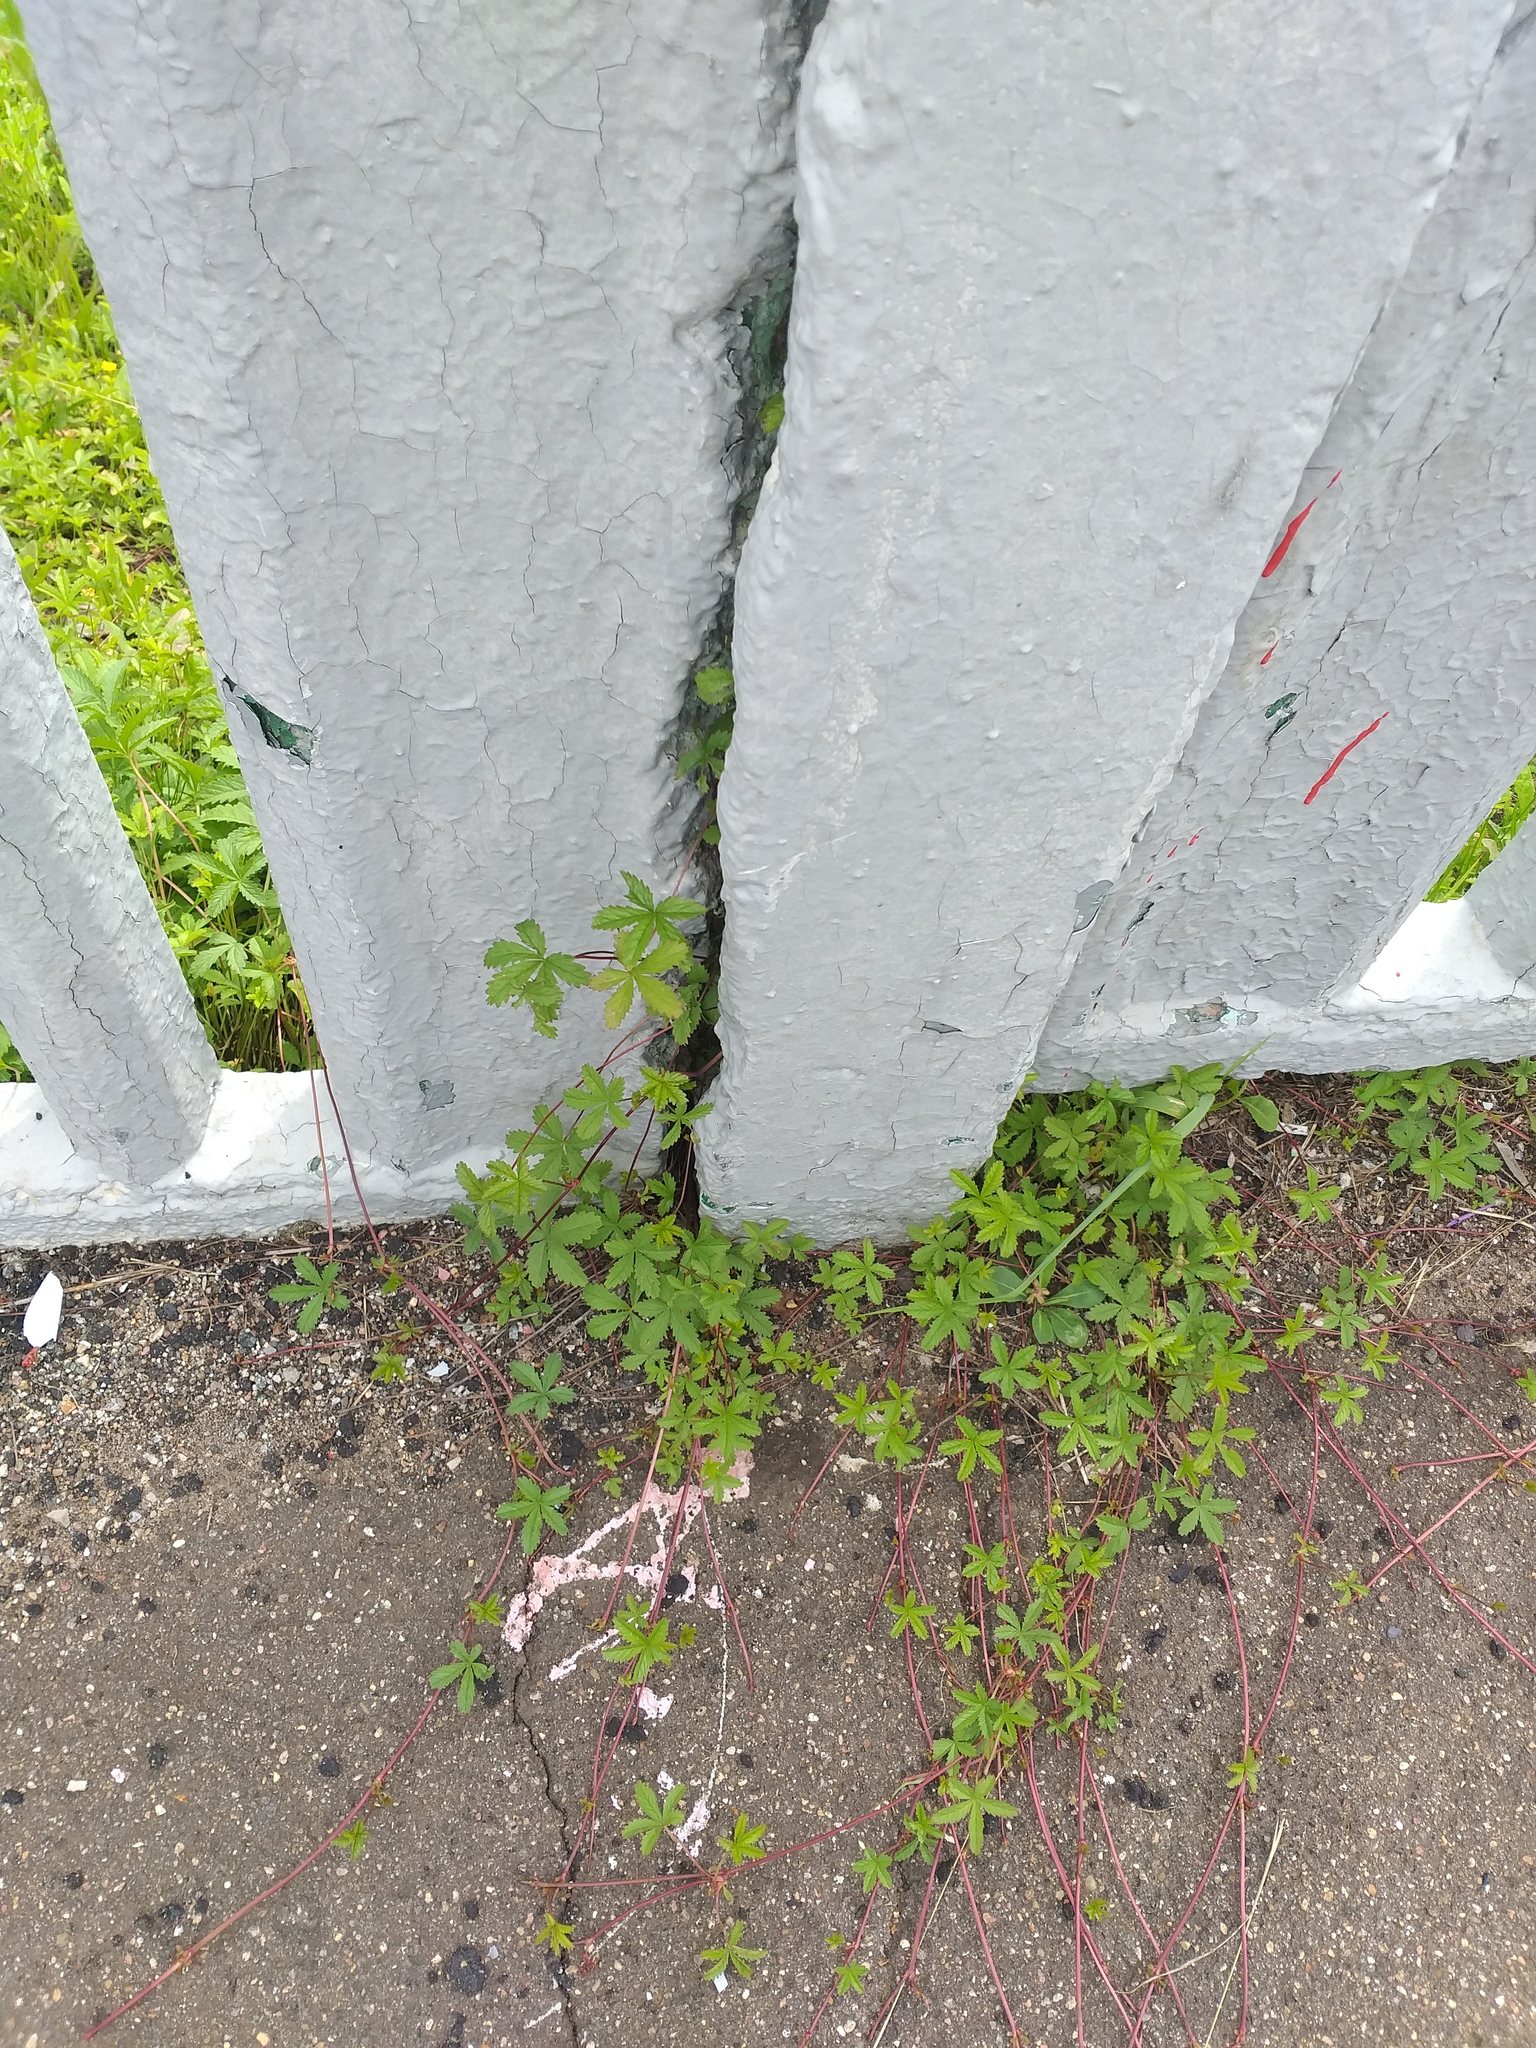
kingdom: Plantae
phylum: Tracheophyta
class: Magnoliopsida
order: Rosales
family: Rosaceae
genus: Potentilla
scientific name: Potentilla reptans
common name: Creeping cinquefoil
